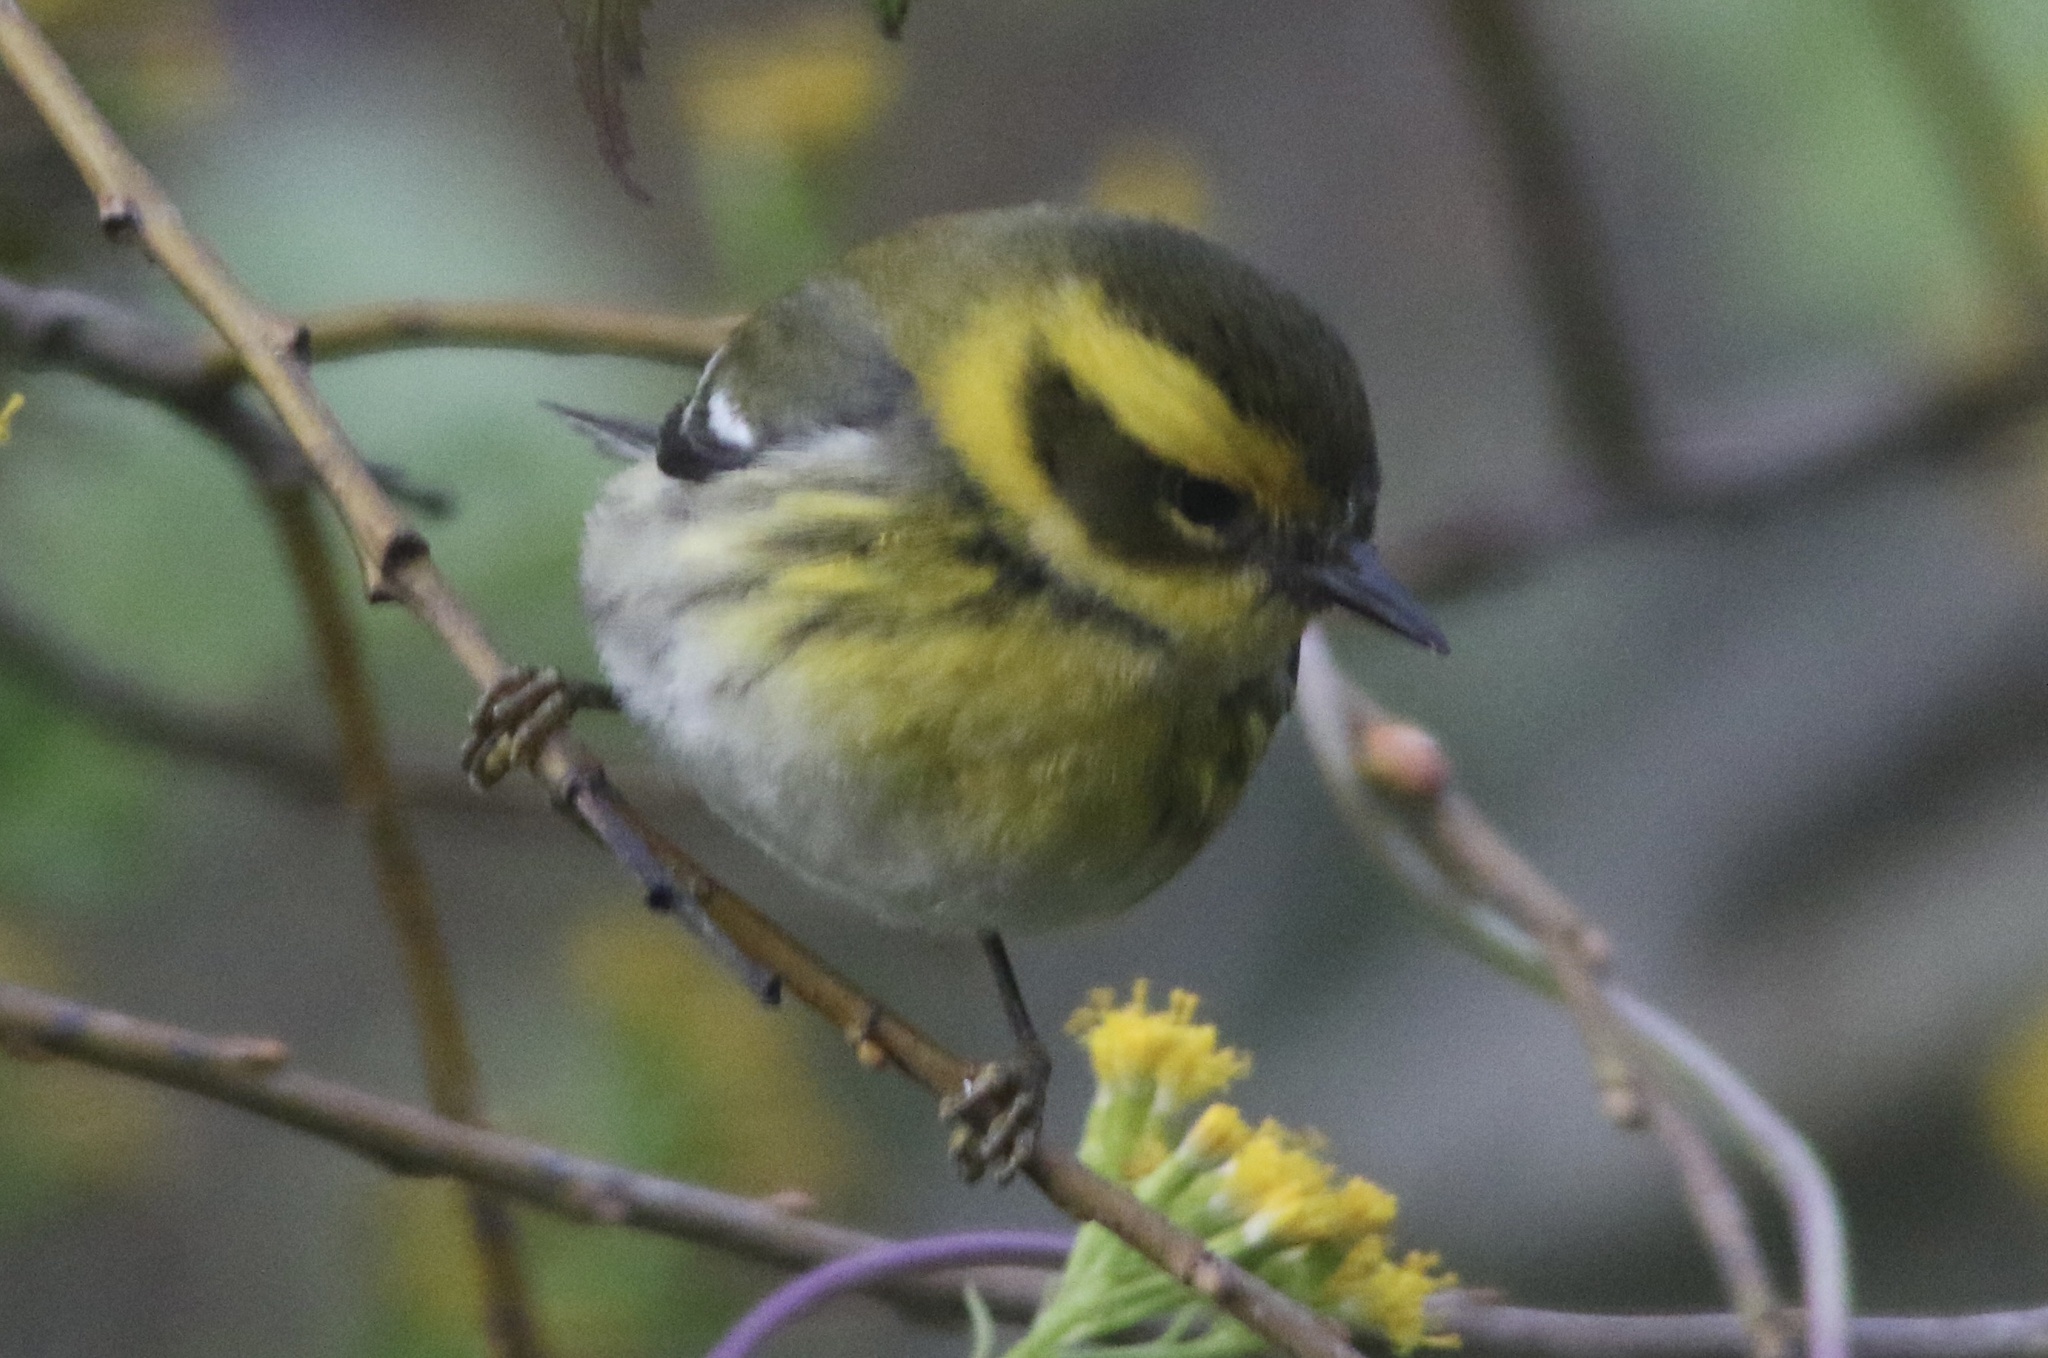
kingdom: Animalia
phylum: Chordata
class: Aves
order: Passeriformes
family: Parulidae
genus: Setophaga
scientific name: Setophaga townsendi
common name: Townsend's warbler
